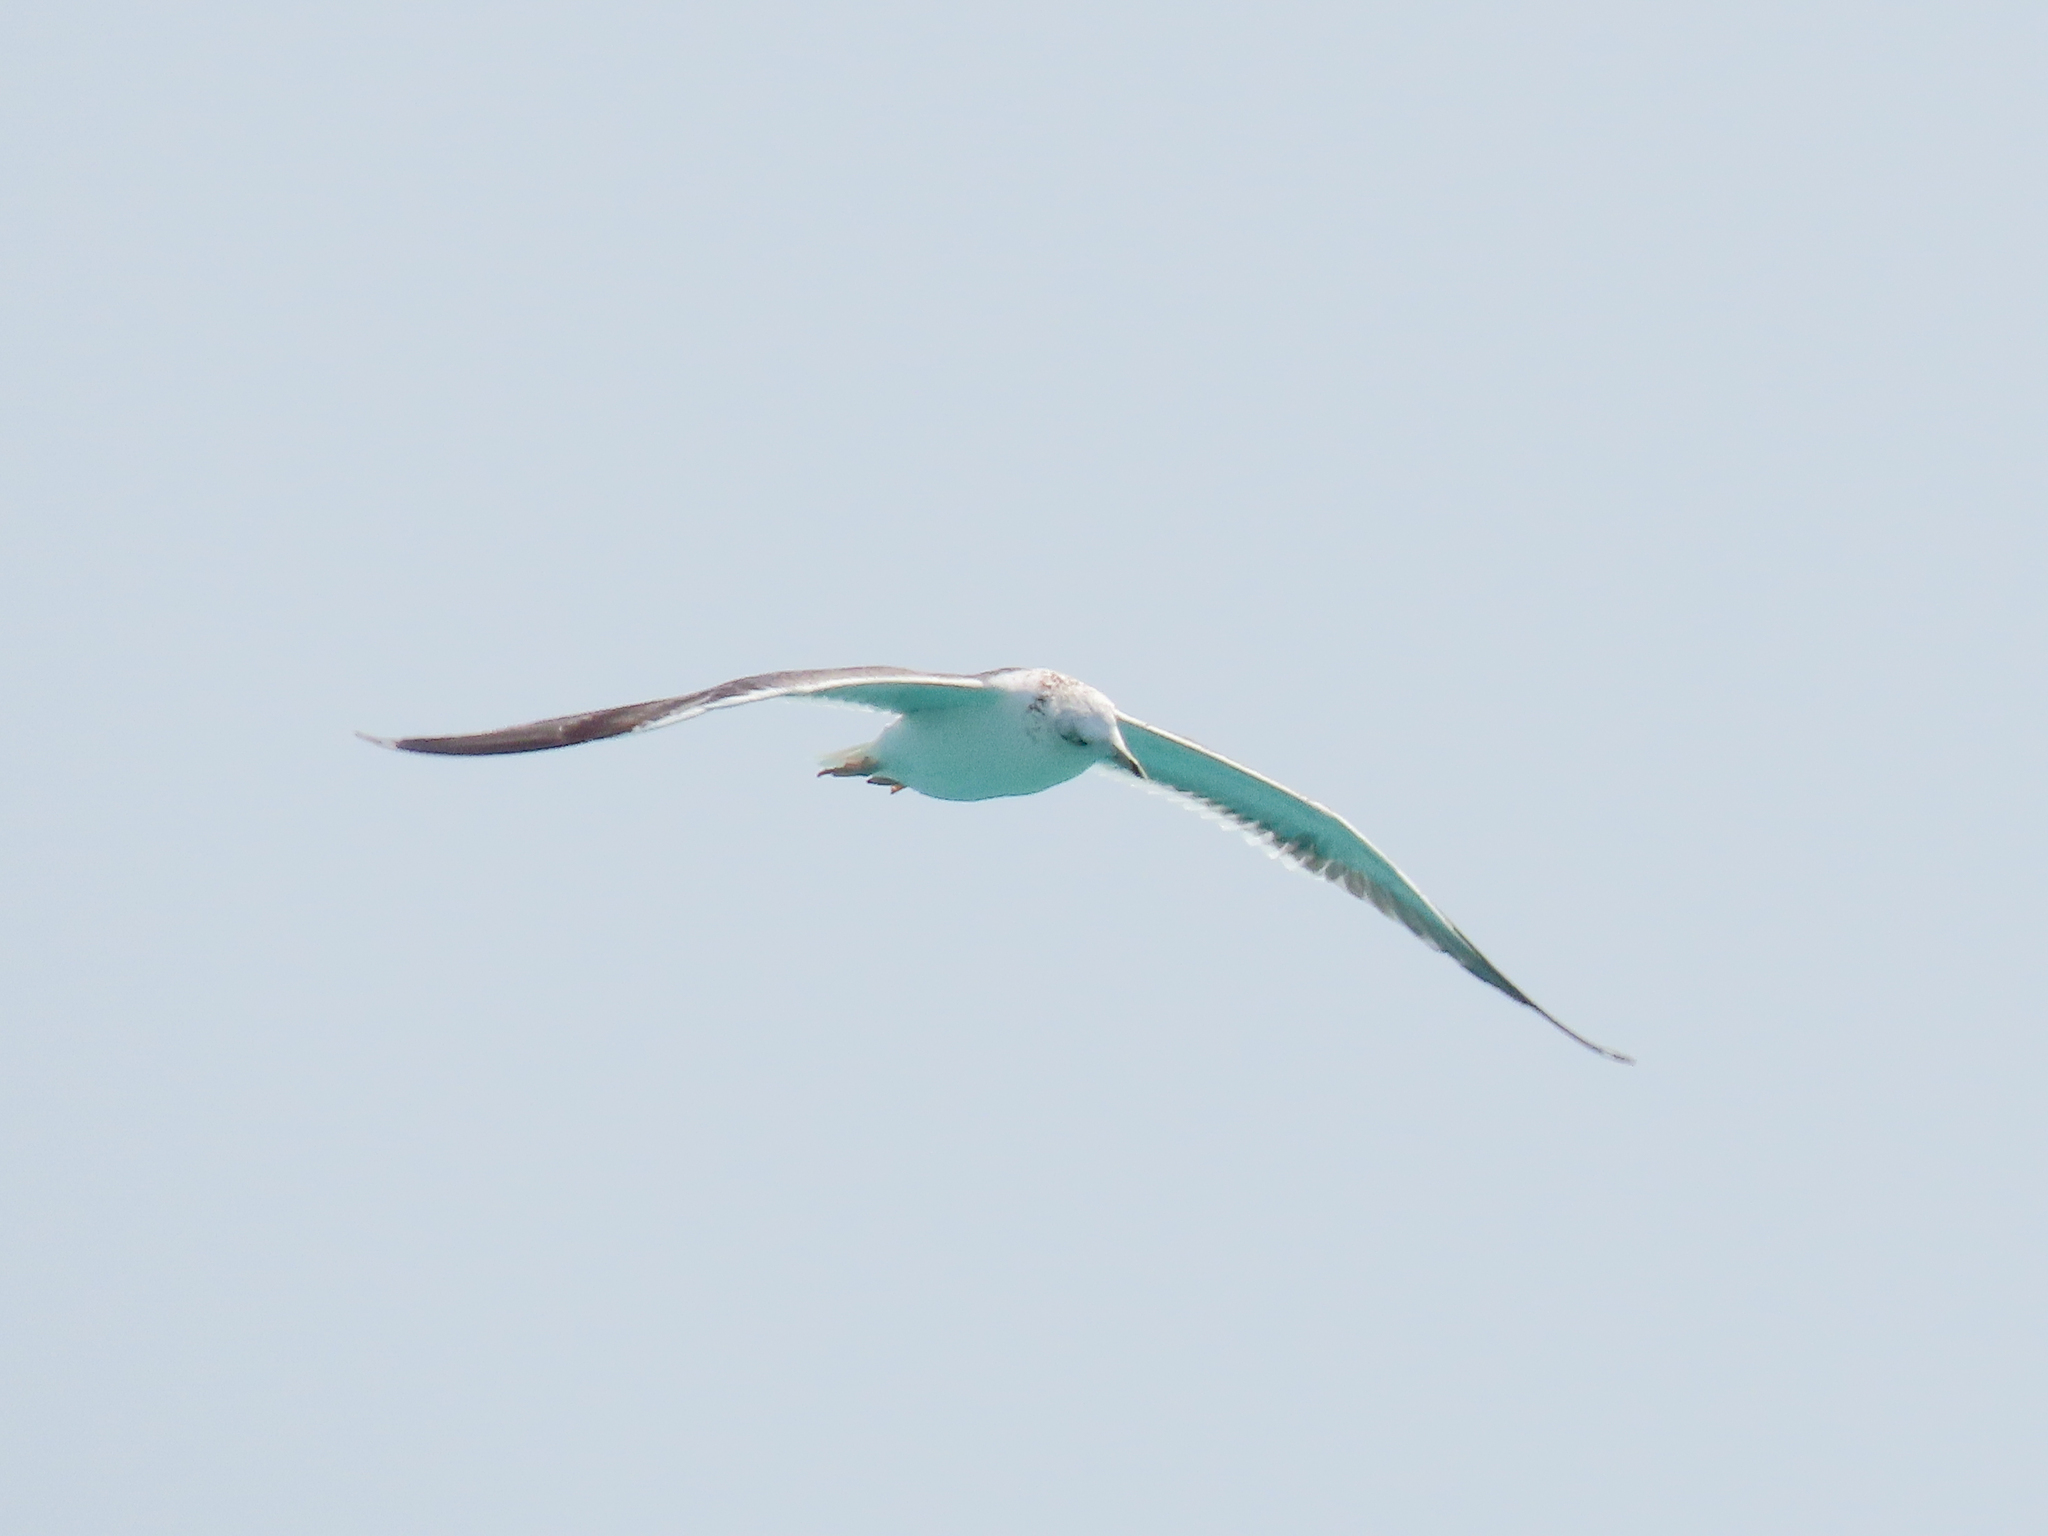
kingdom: Animalia
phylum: Chordata
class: Aves
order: Charadriiformes
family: Laridae
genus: Larus
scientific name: Larus fuscus
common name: Lesser black-backed gull
